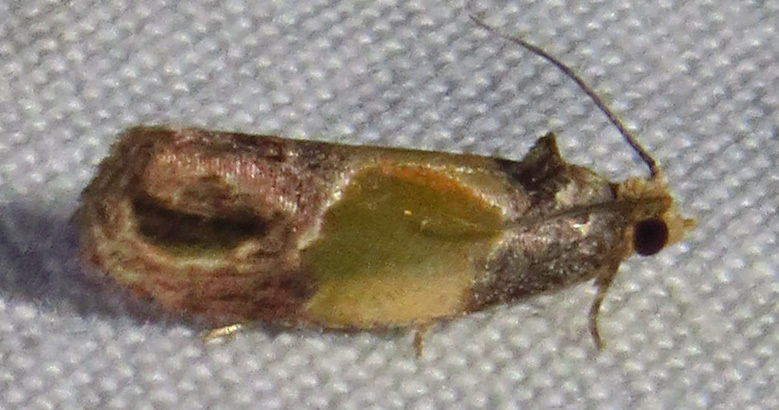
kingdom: Animalia
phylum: Arthropoda
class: Insecta
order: Lepidoptera
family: Tortricidae
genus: Eumarozia
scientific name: Eumarozia malachitana
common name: Sculptured moth
